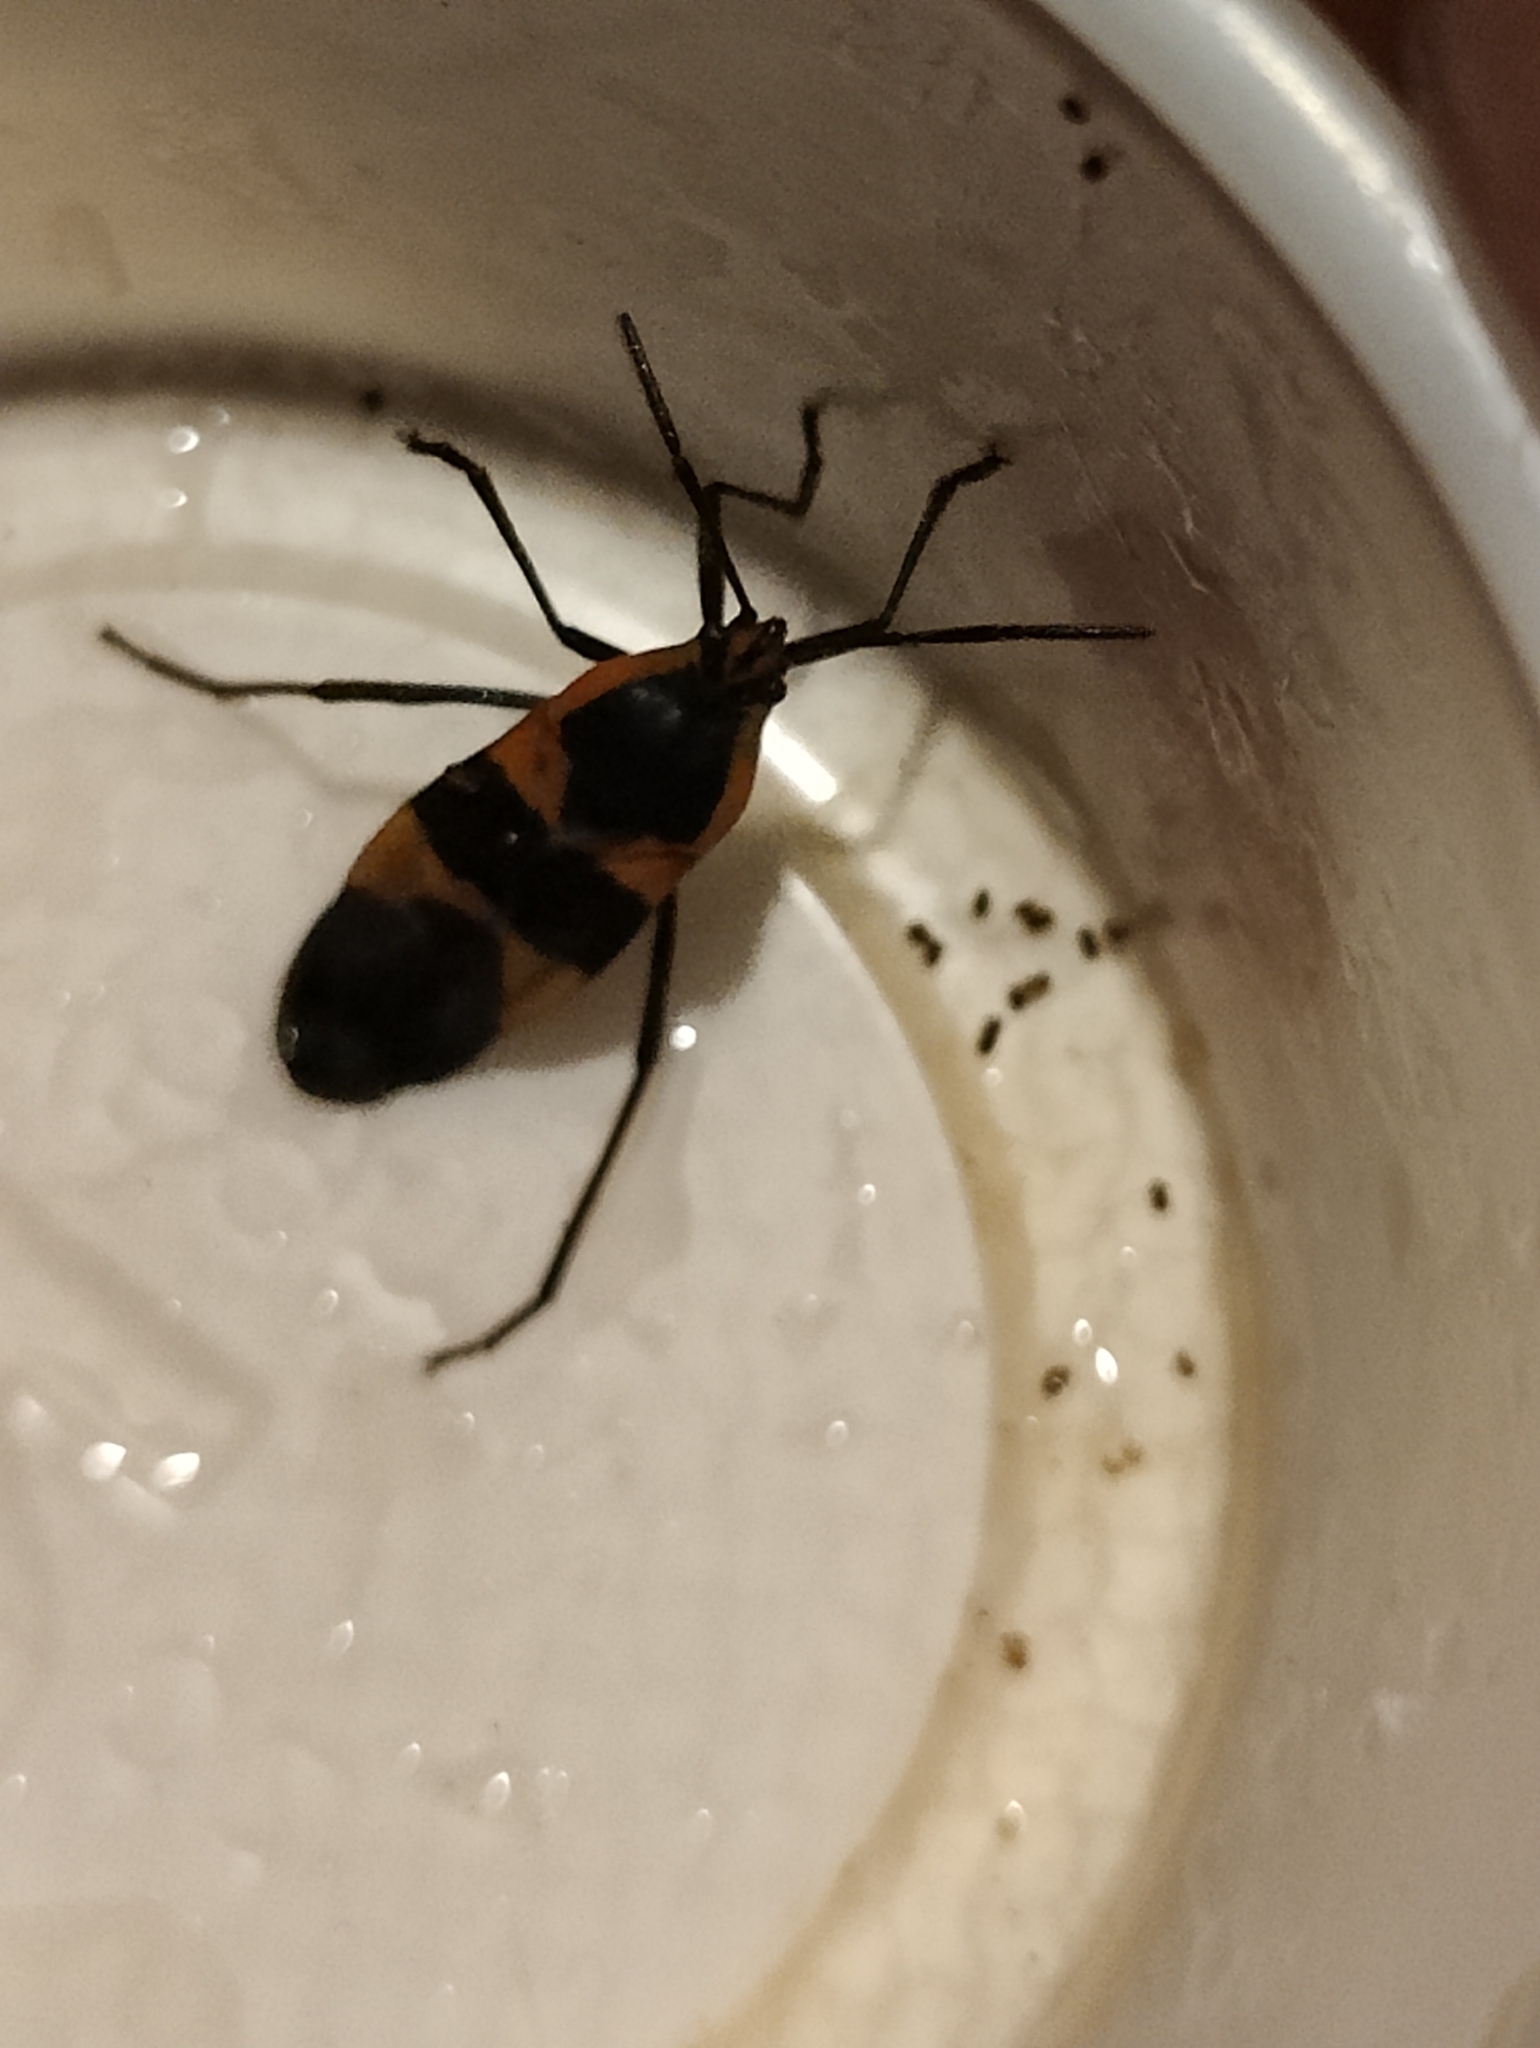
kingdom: Animalia
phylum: Arthropoda
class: Insecta
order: Hemiptera
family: Lygaeidae
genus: Oncopeltus
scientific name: Oncopeltus fasciatus
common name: Large milkweed bug
